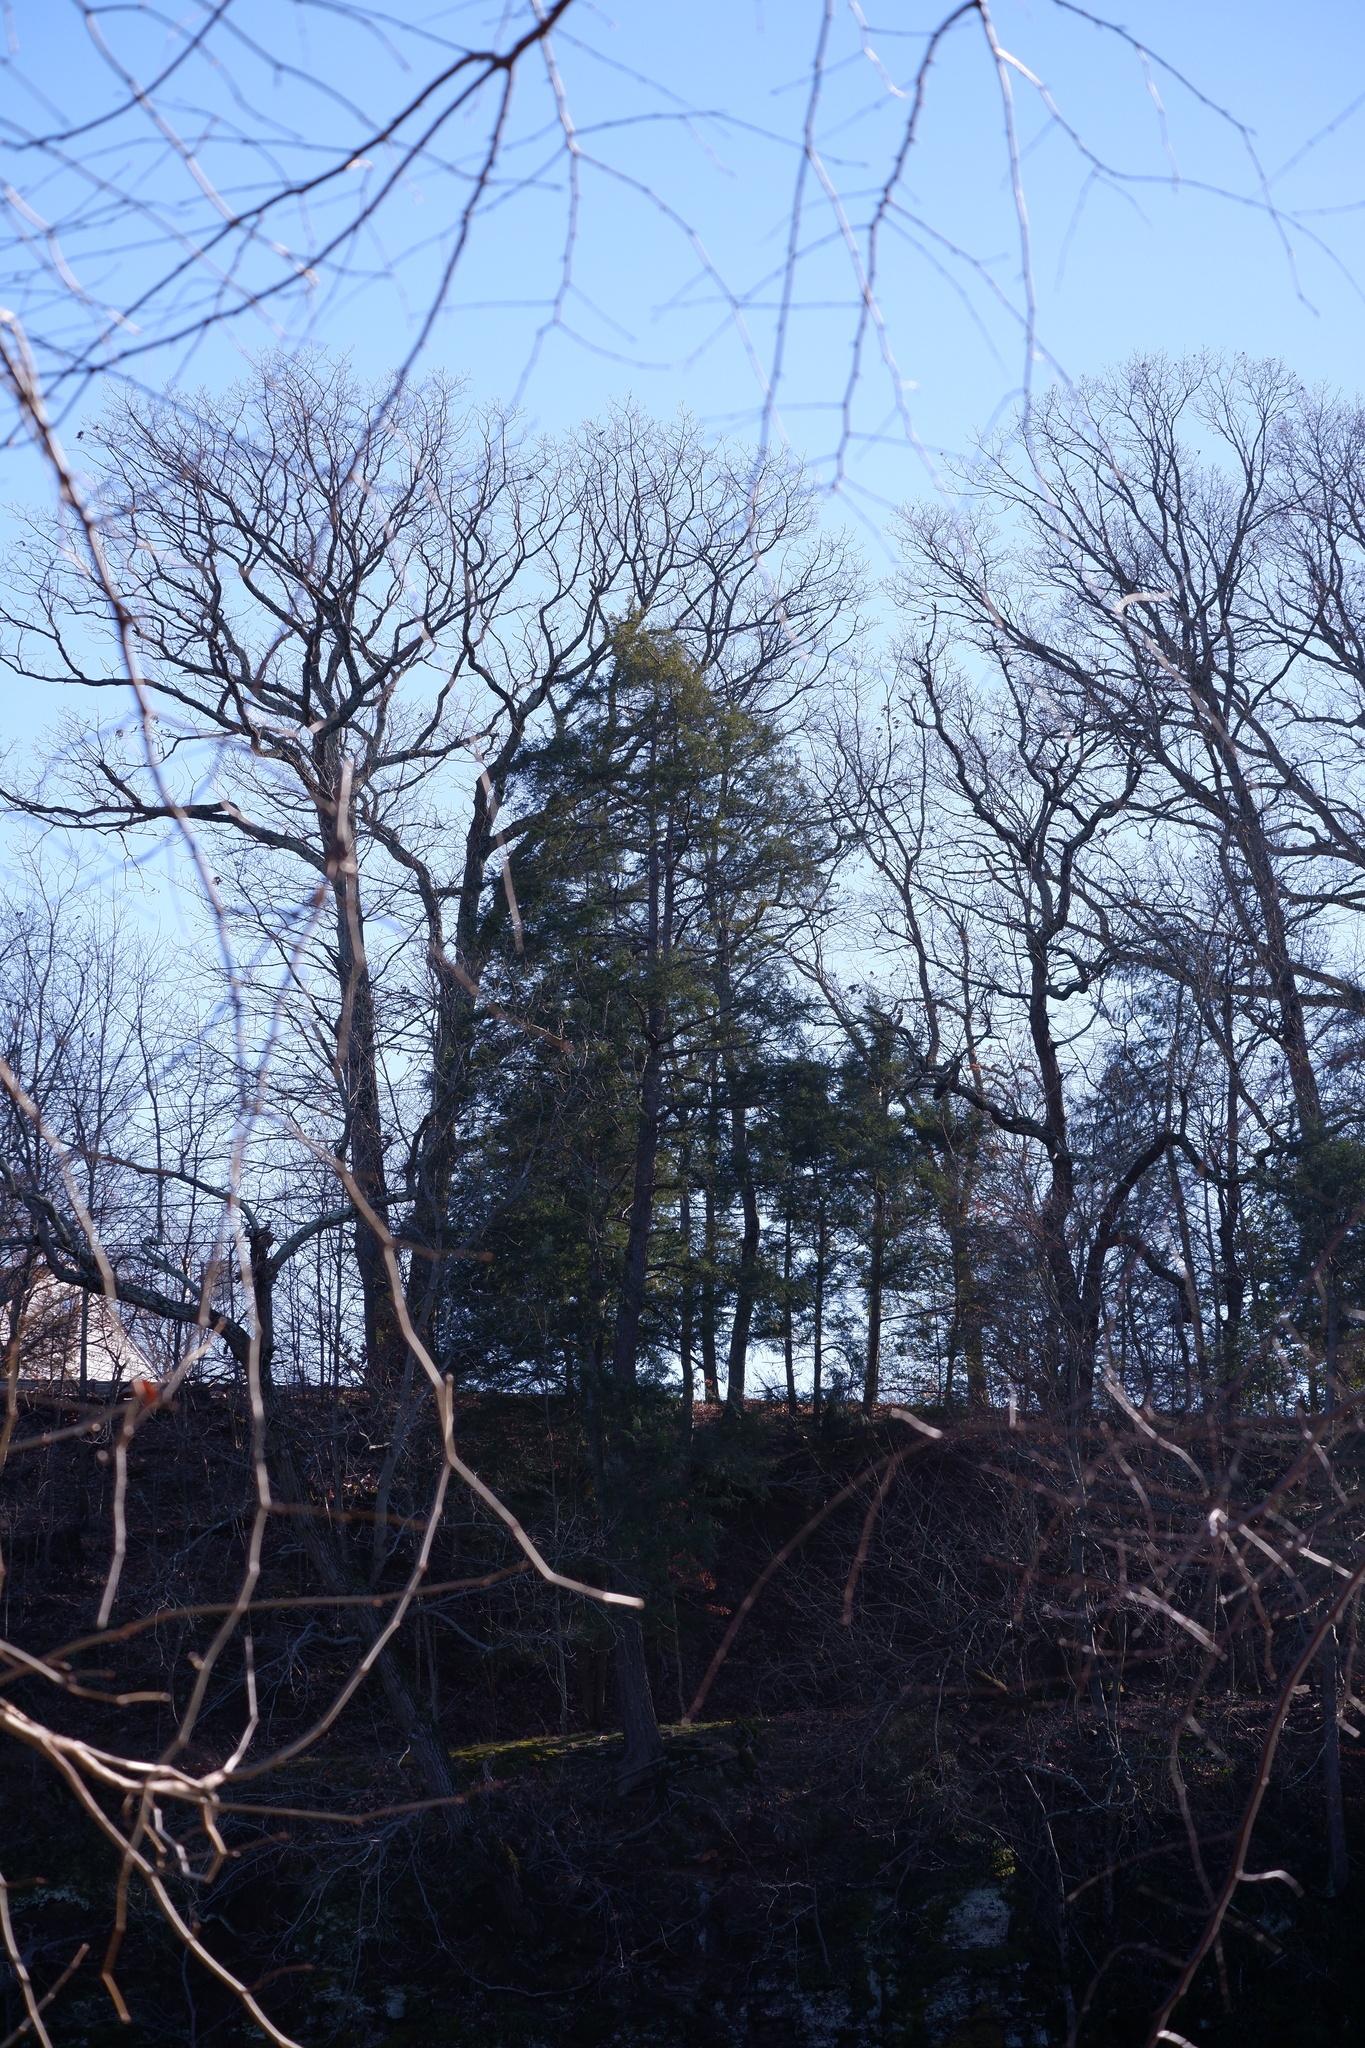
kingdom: Plantae
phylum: Tracheophyta
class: Pinopsida
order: Pinales
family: Pinaceae
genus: Tsuga
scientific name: Tsuga canadensis
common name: Eastern hemlock
